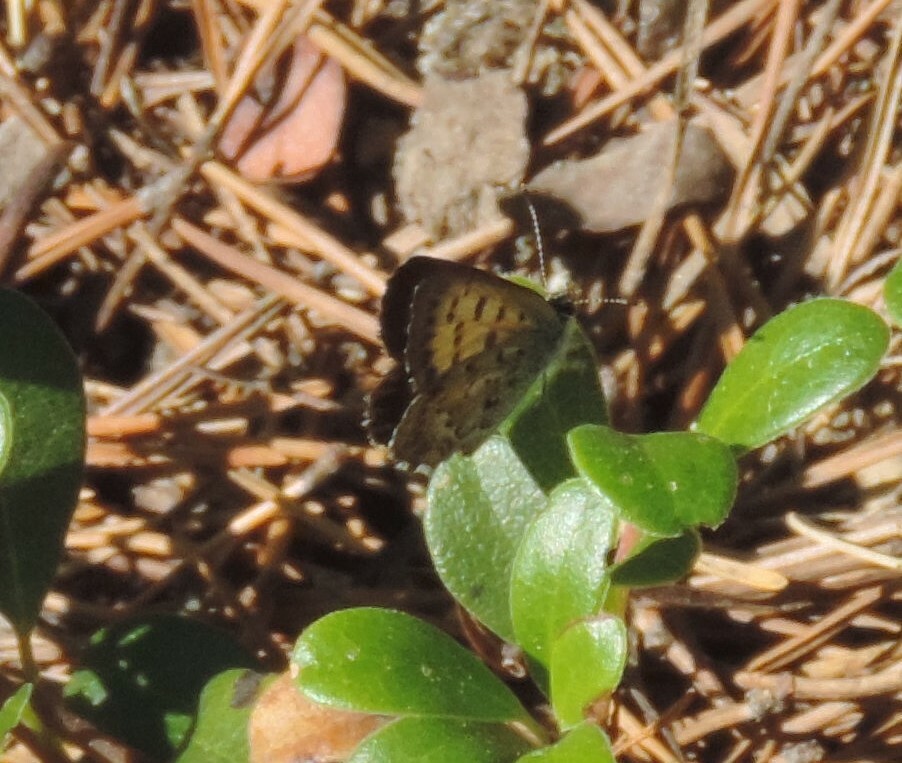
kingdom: Animalia
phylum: Arthropoda
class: Insecta
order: Lepidoptera
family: Lycaenidae
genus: Tharsalea
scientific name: Tharsalea mariposa
